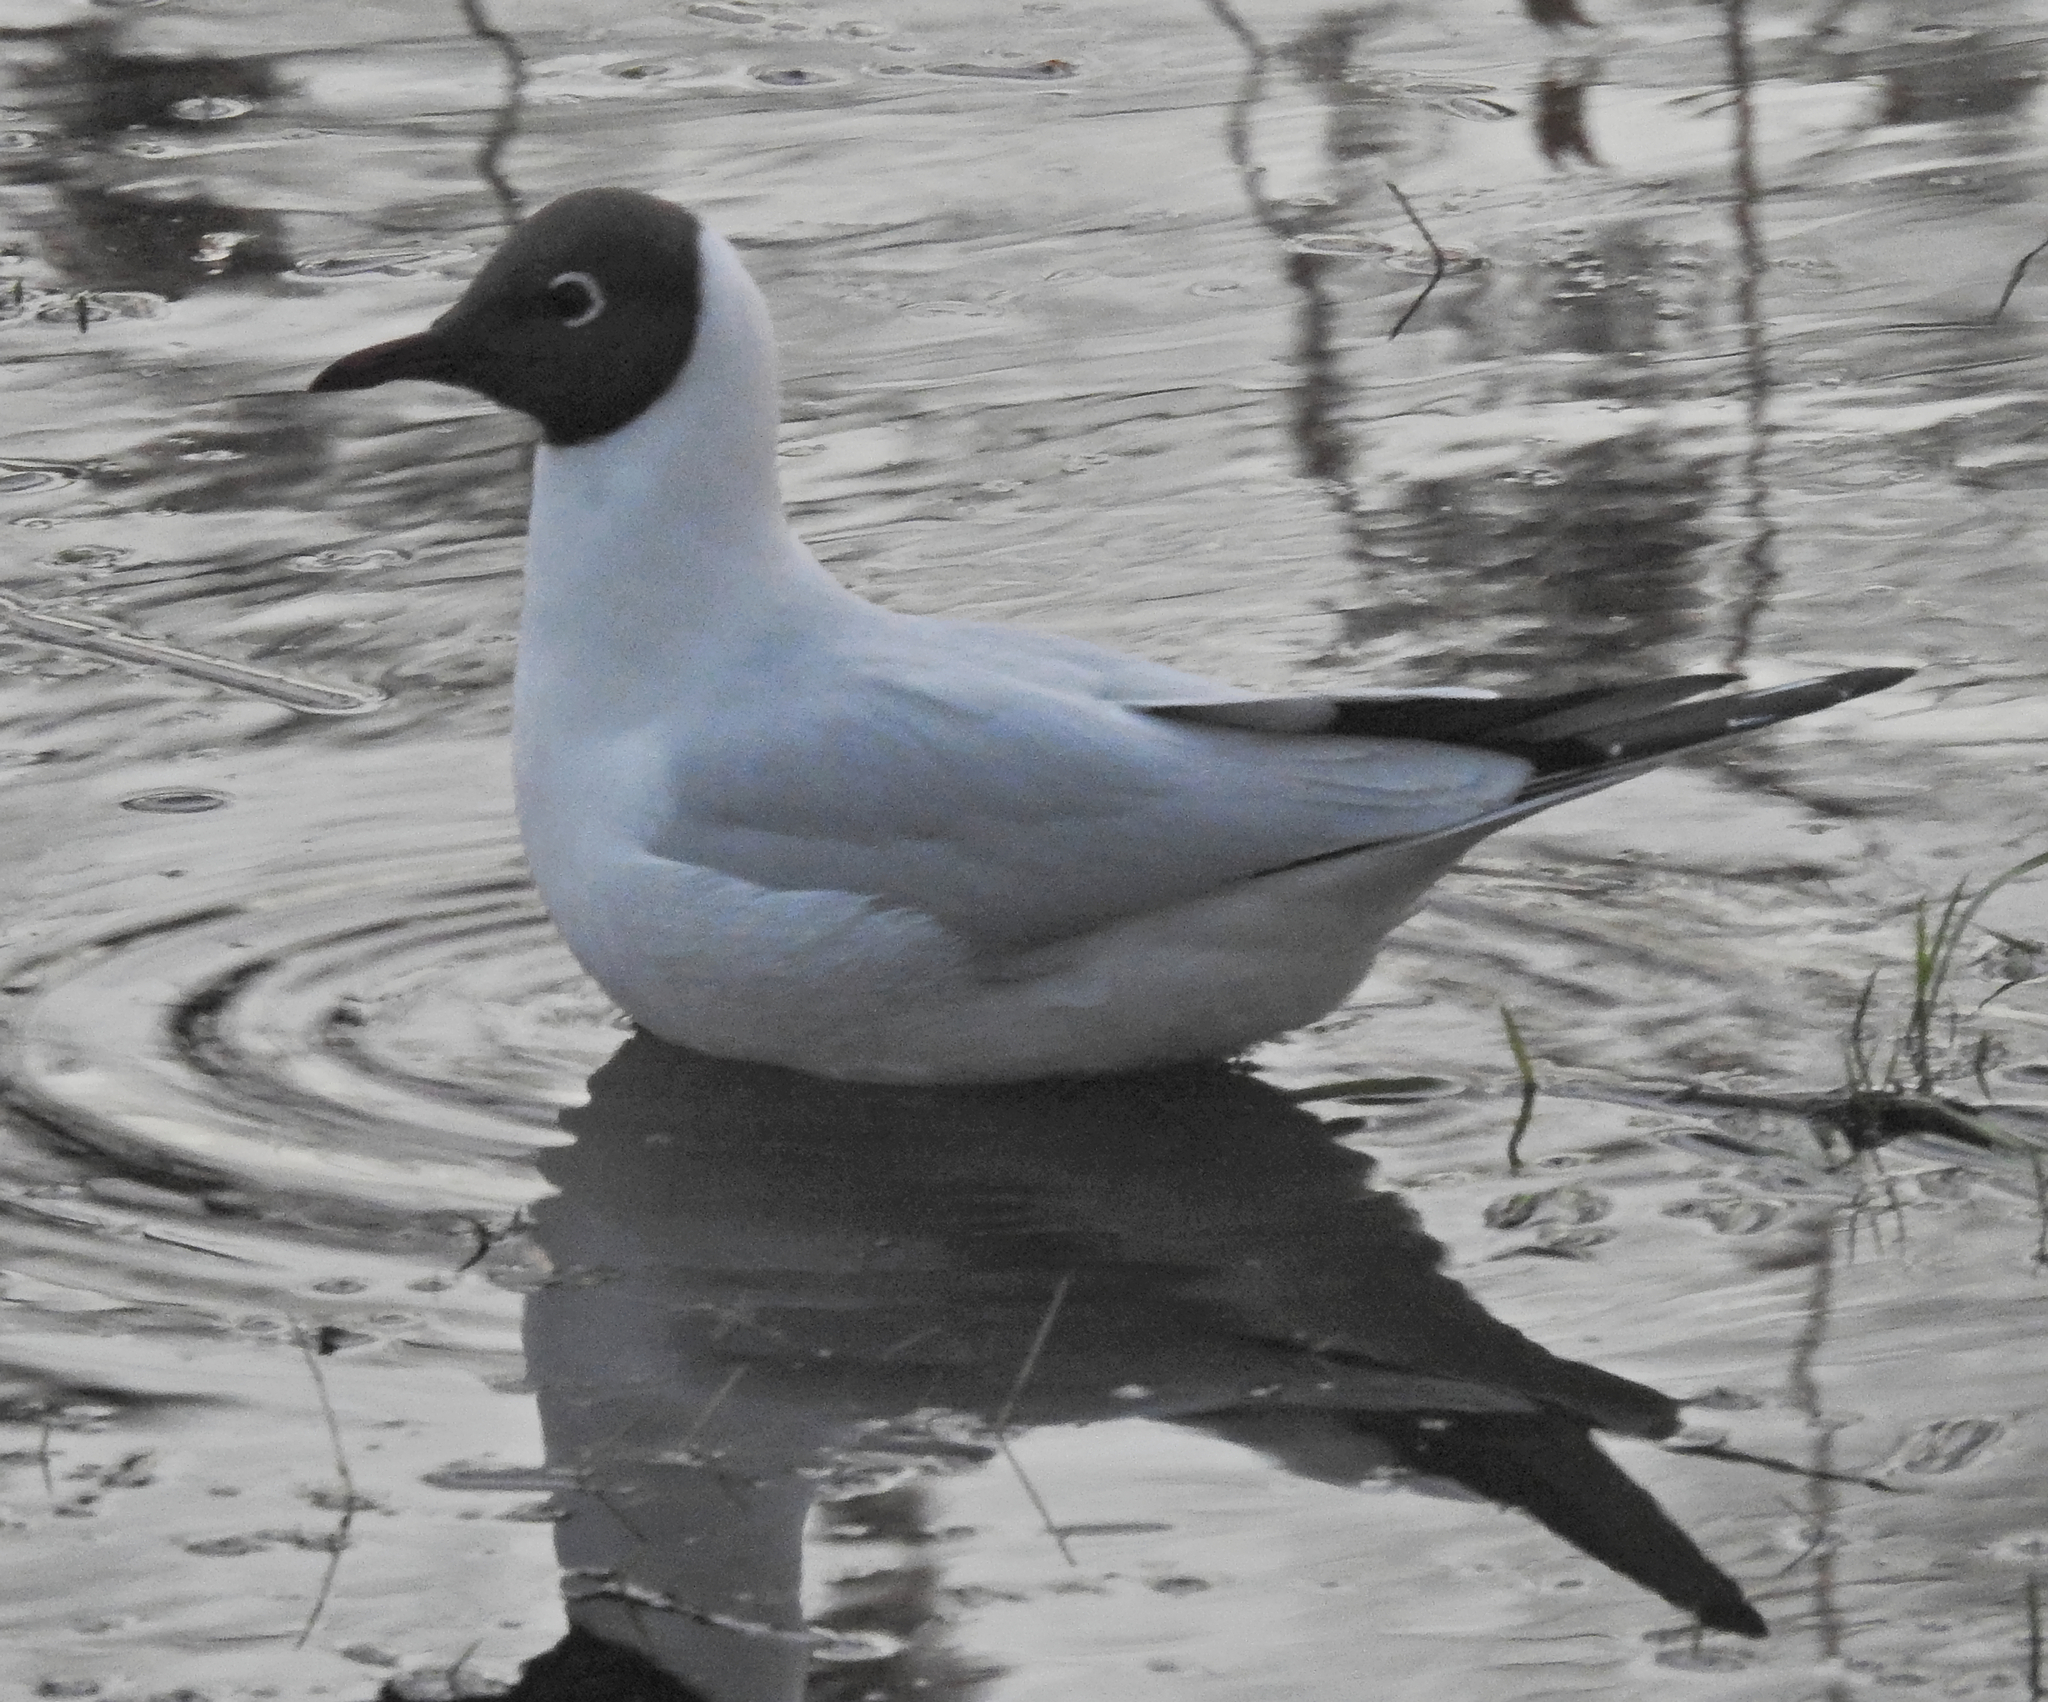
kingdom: Animalia
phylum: Chordata
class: Aves
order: Charadriiformes
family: Laridae
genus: Chroicocephalus
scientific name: Chroicocephalus ridibundus
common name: Black-headed gull
